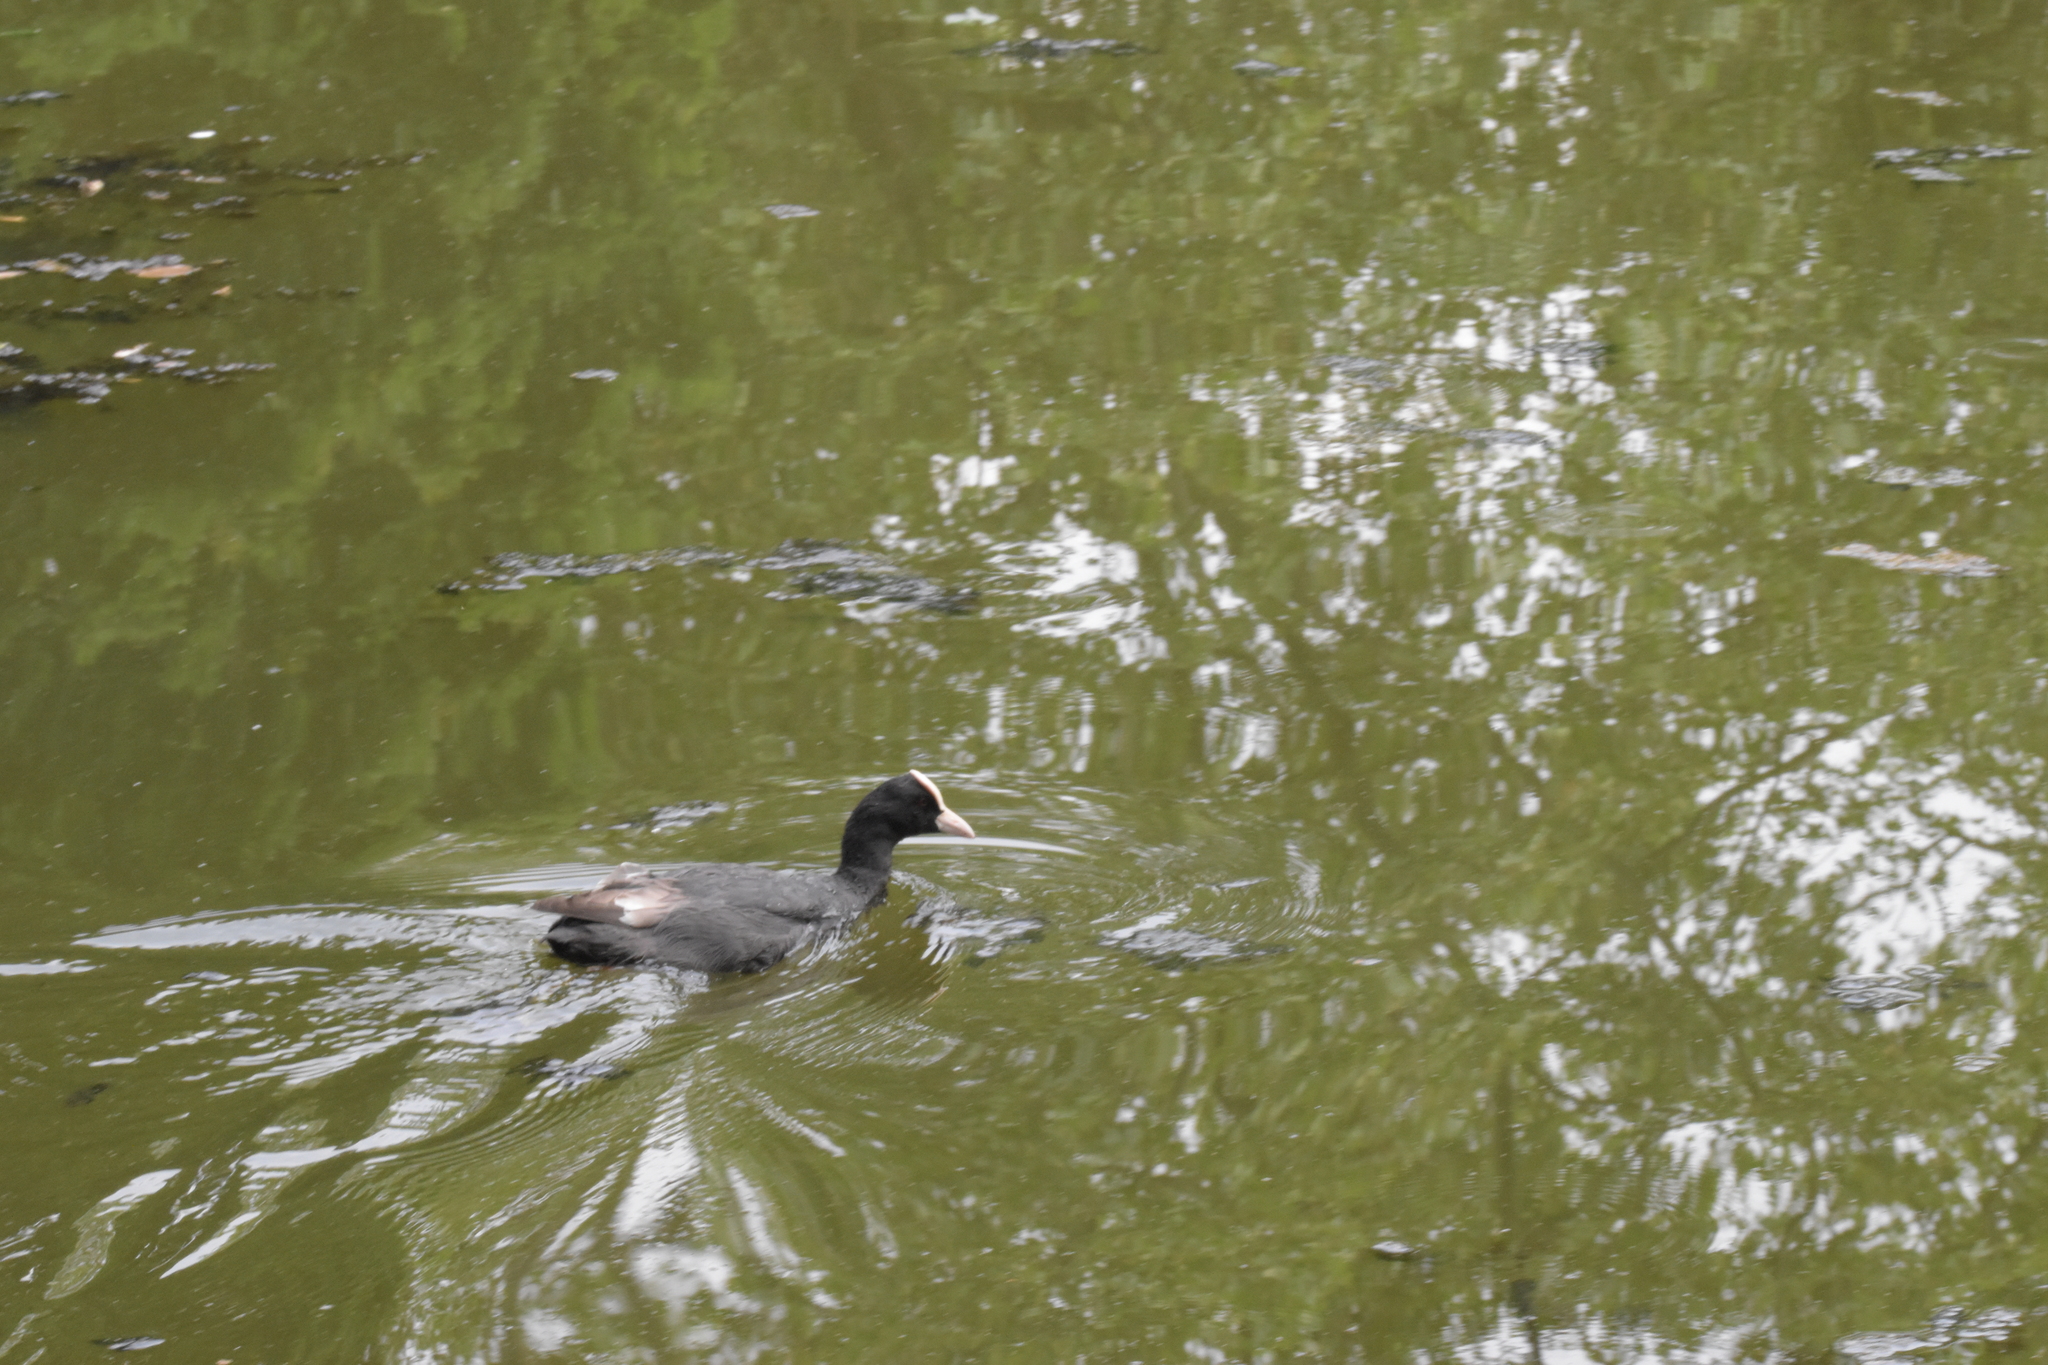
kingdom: Animalia
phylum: Chordata
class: Aves
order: Gruiformes
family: Rallidae
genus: Fulica
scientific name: Fulica atra
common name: Eurasian coot
